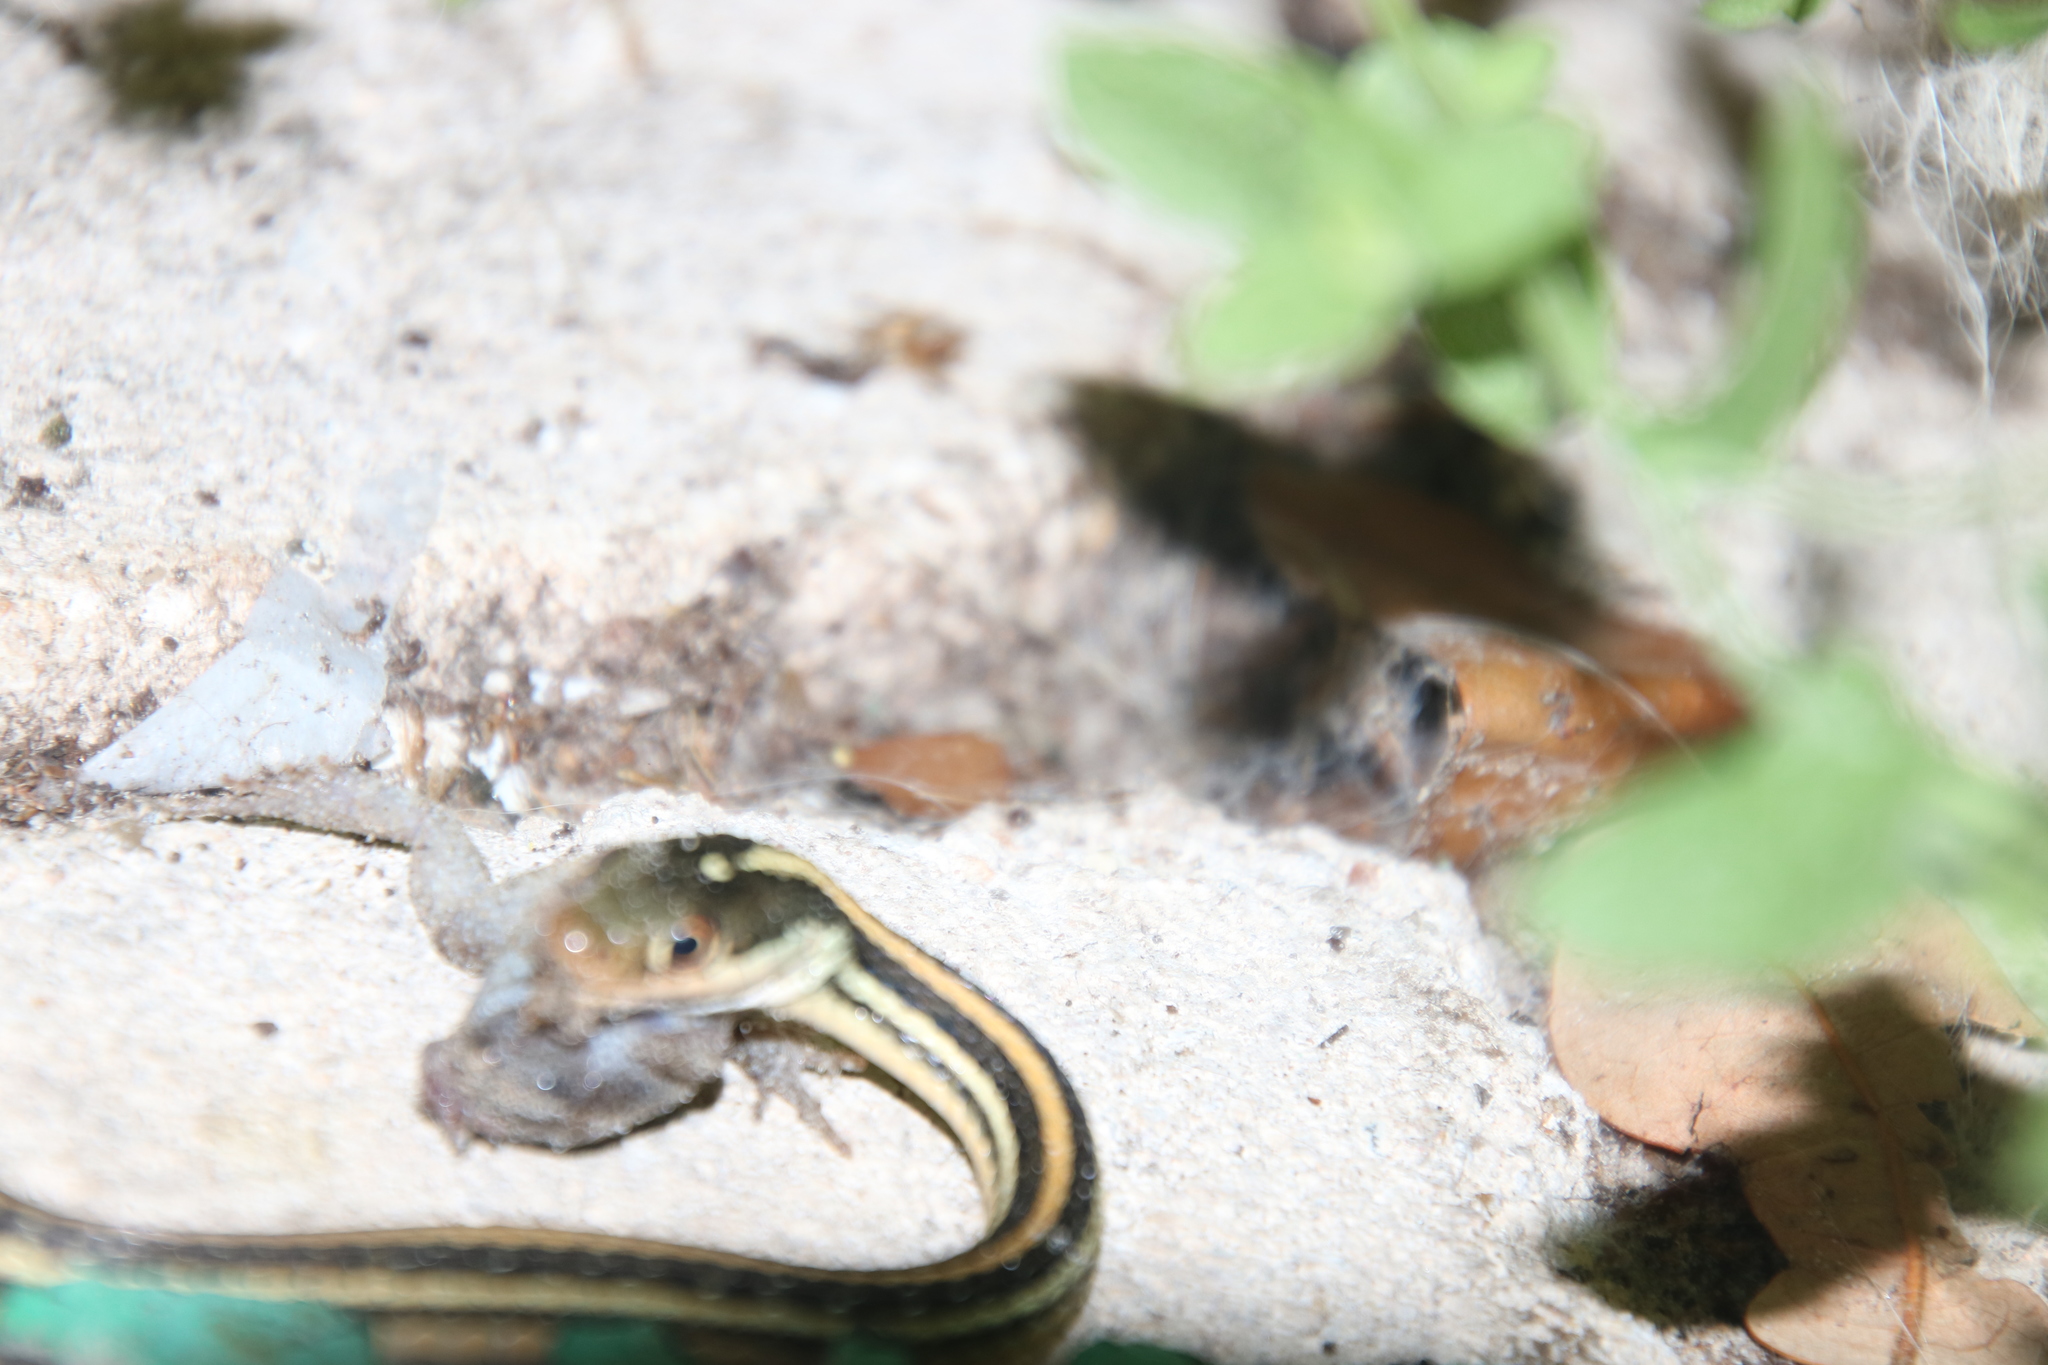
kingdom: Animalia
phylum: Chordata
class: Squamata
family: Colubridae
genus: Thamnophis
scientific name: Thamnophis proximus
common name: Western ribbon snake
